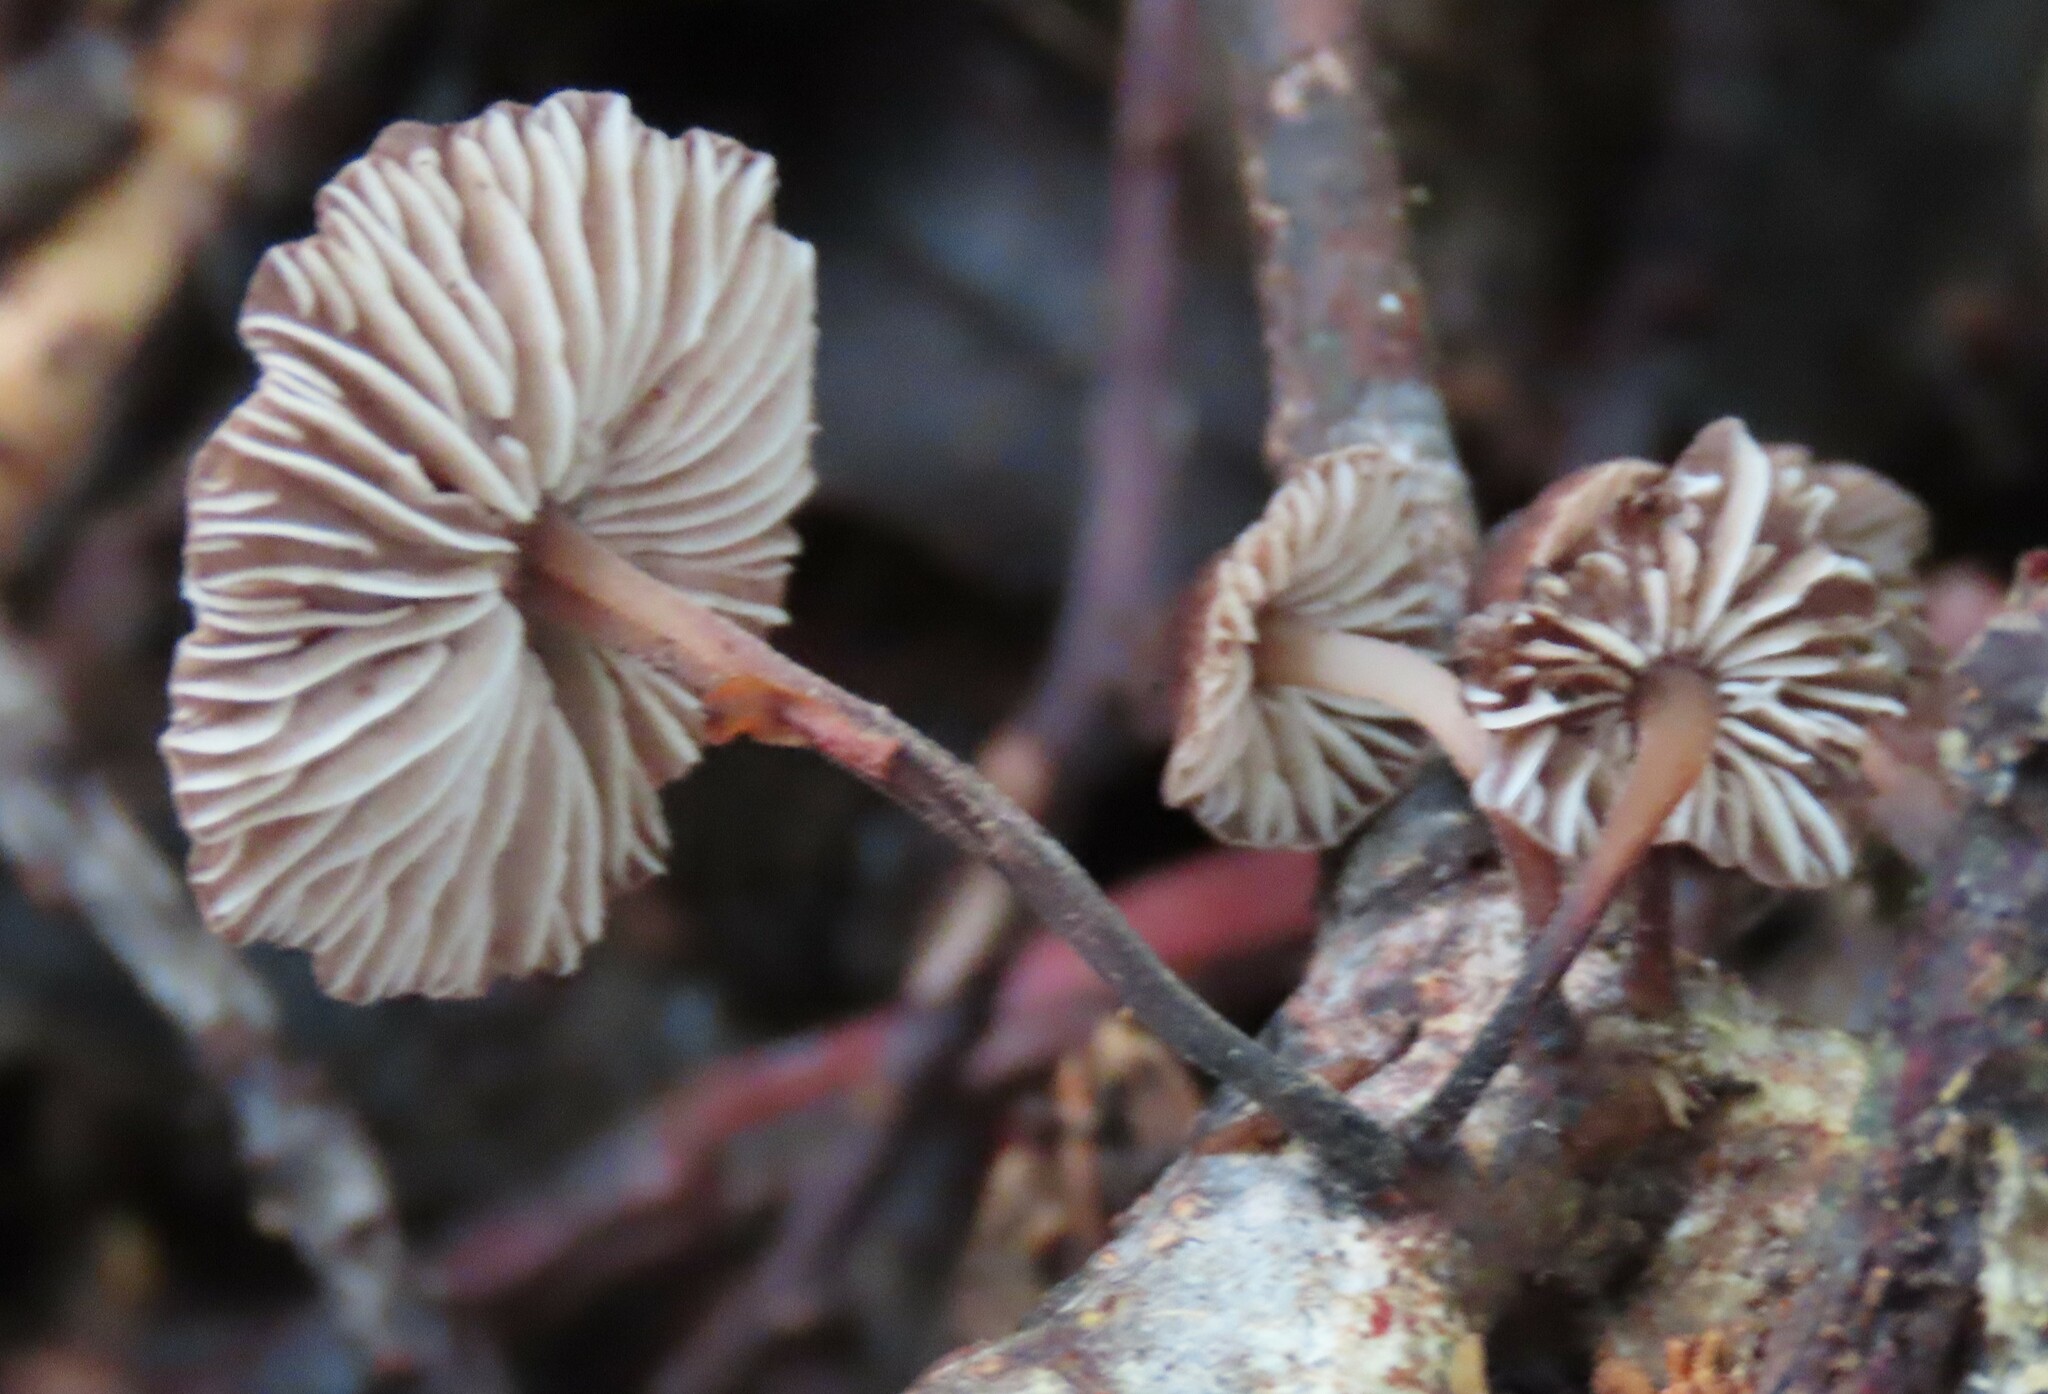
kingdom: Fungi
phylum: Basidiomycota
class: Agaricomycetes
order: Agaricales
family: Omphalotaceae
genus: Gymnopus
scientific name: Gymnopus ceraceicola
